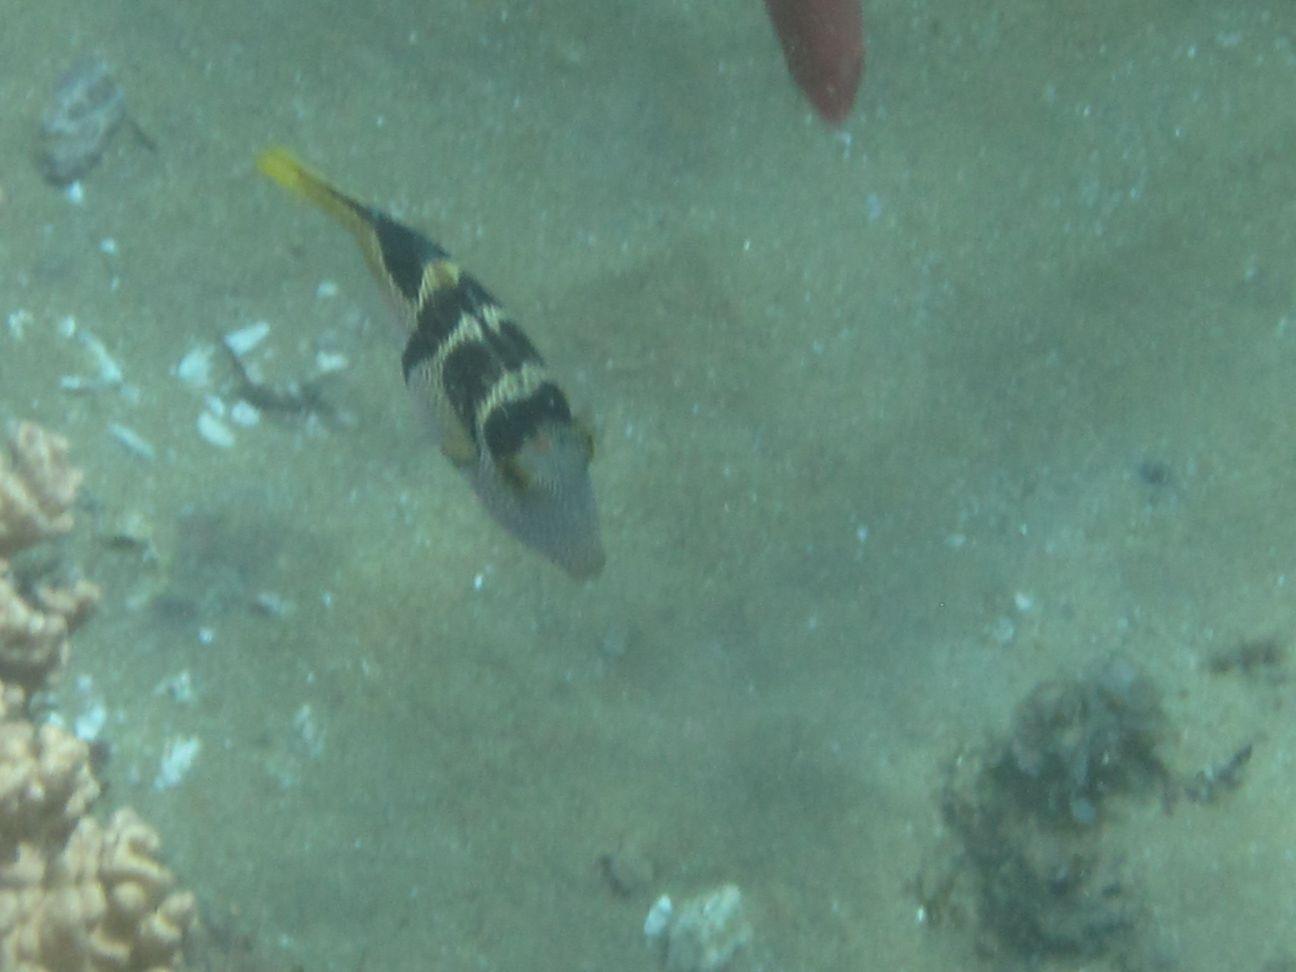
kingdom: Animalia
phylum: Chordata
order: Tetraodontiformes
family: Tetraodontidae
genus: Canthigaster
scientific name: Canthigaster valentini
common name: Banded toby
